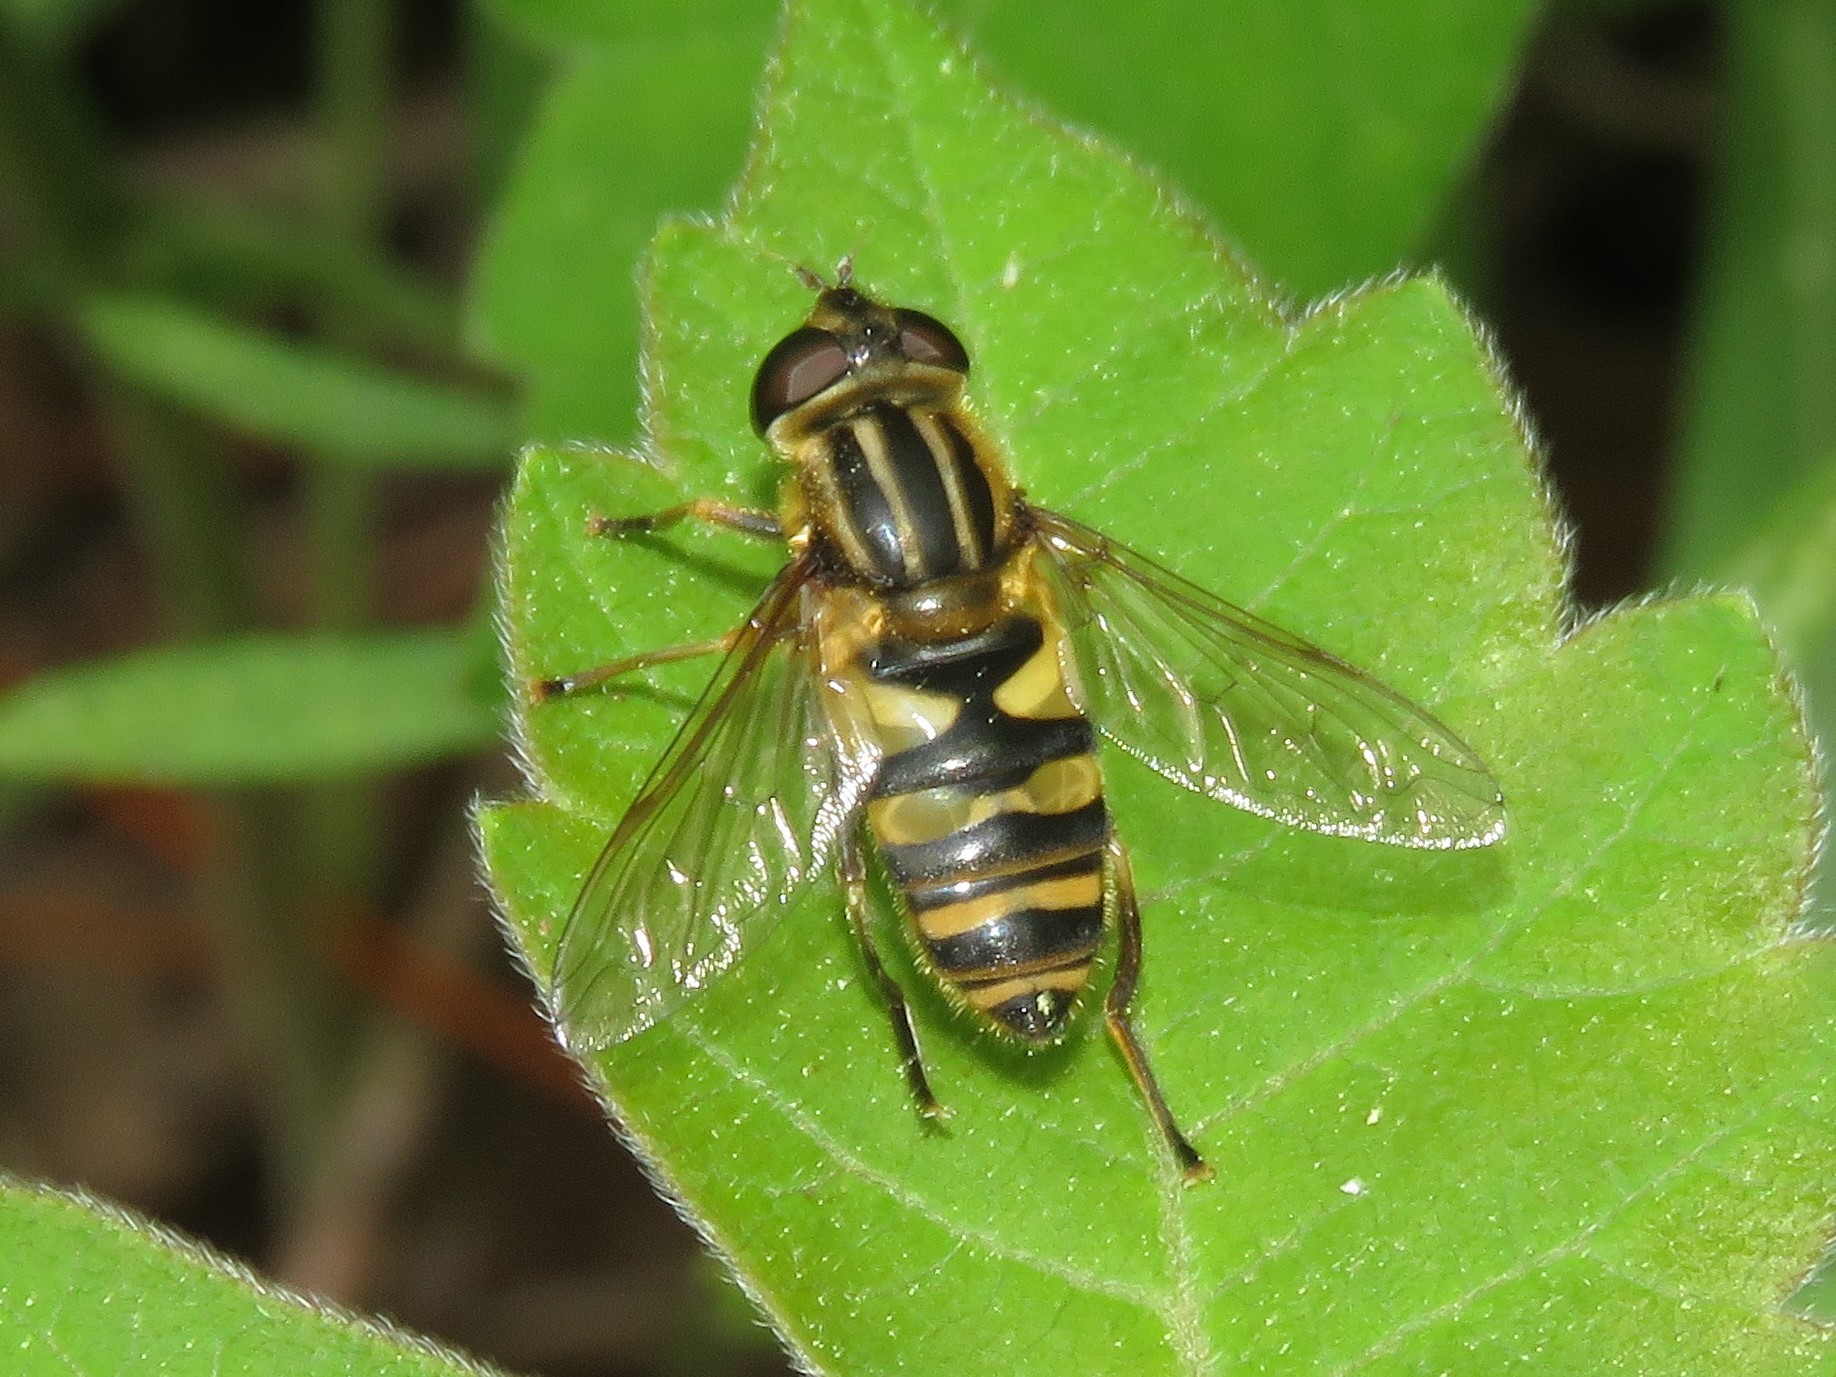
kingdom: Animalia
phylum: Arthropoda
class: Insecta
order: Diptera
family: Syrphidae
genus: Helophilus
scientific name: Helophilus fasciatus
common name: Narrow-headed marsh fly
